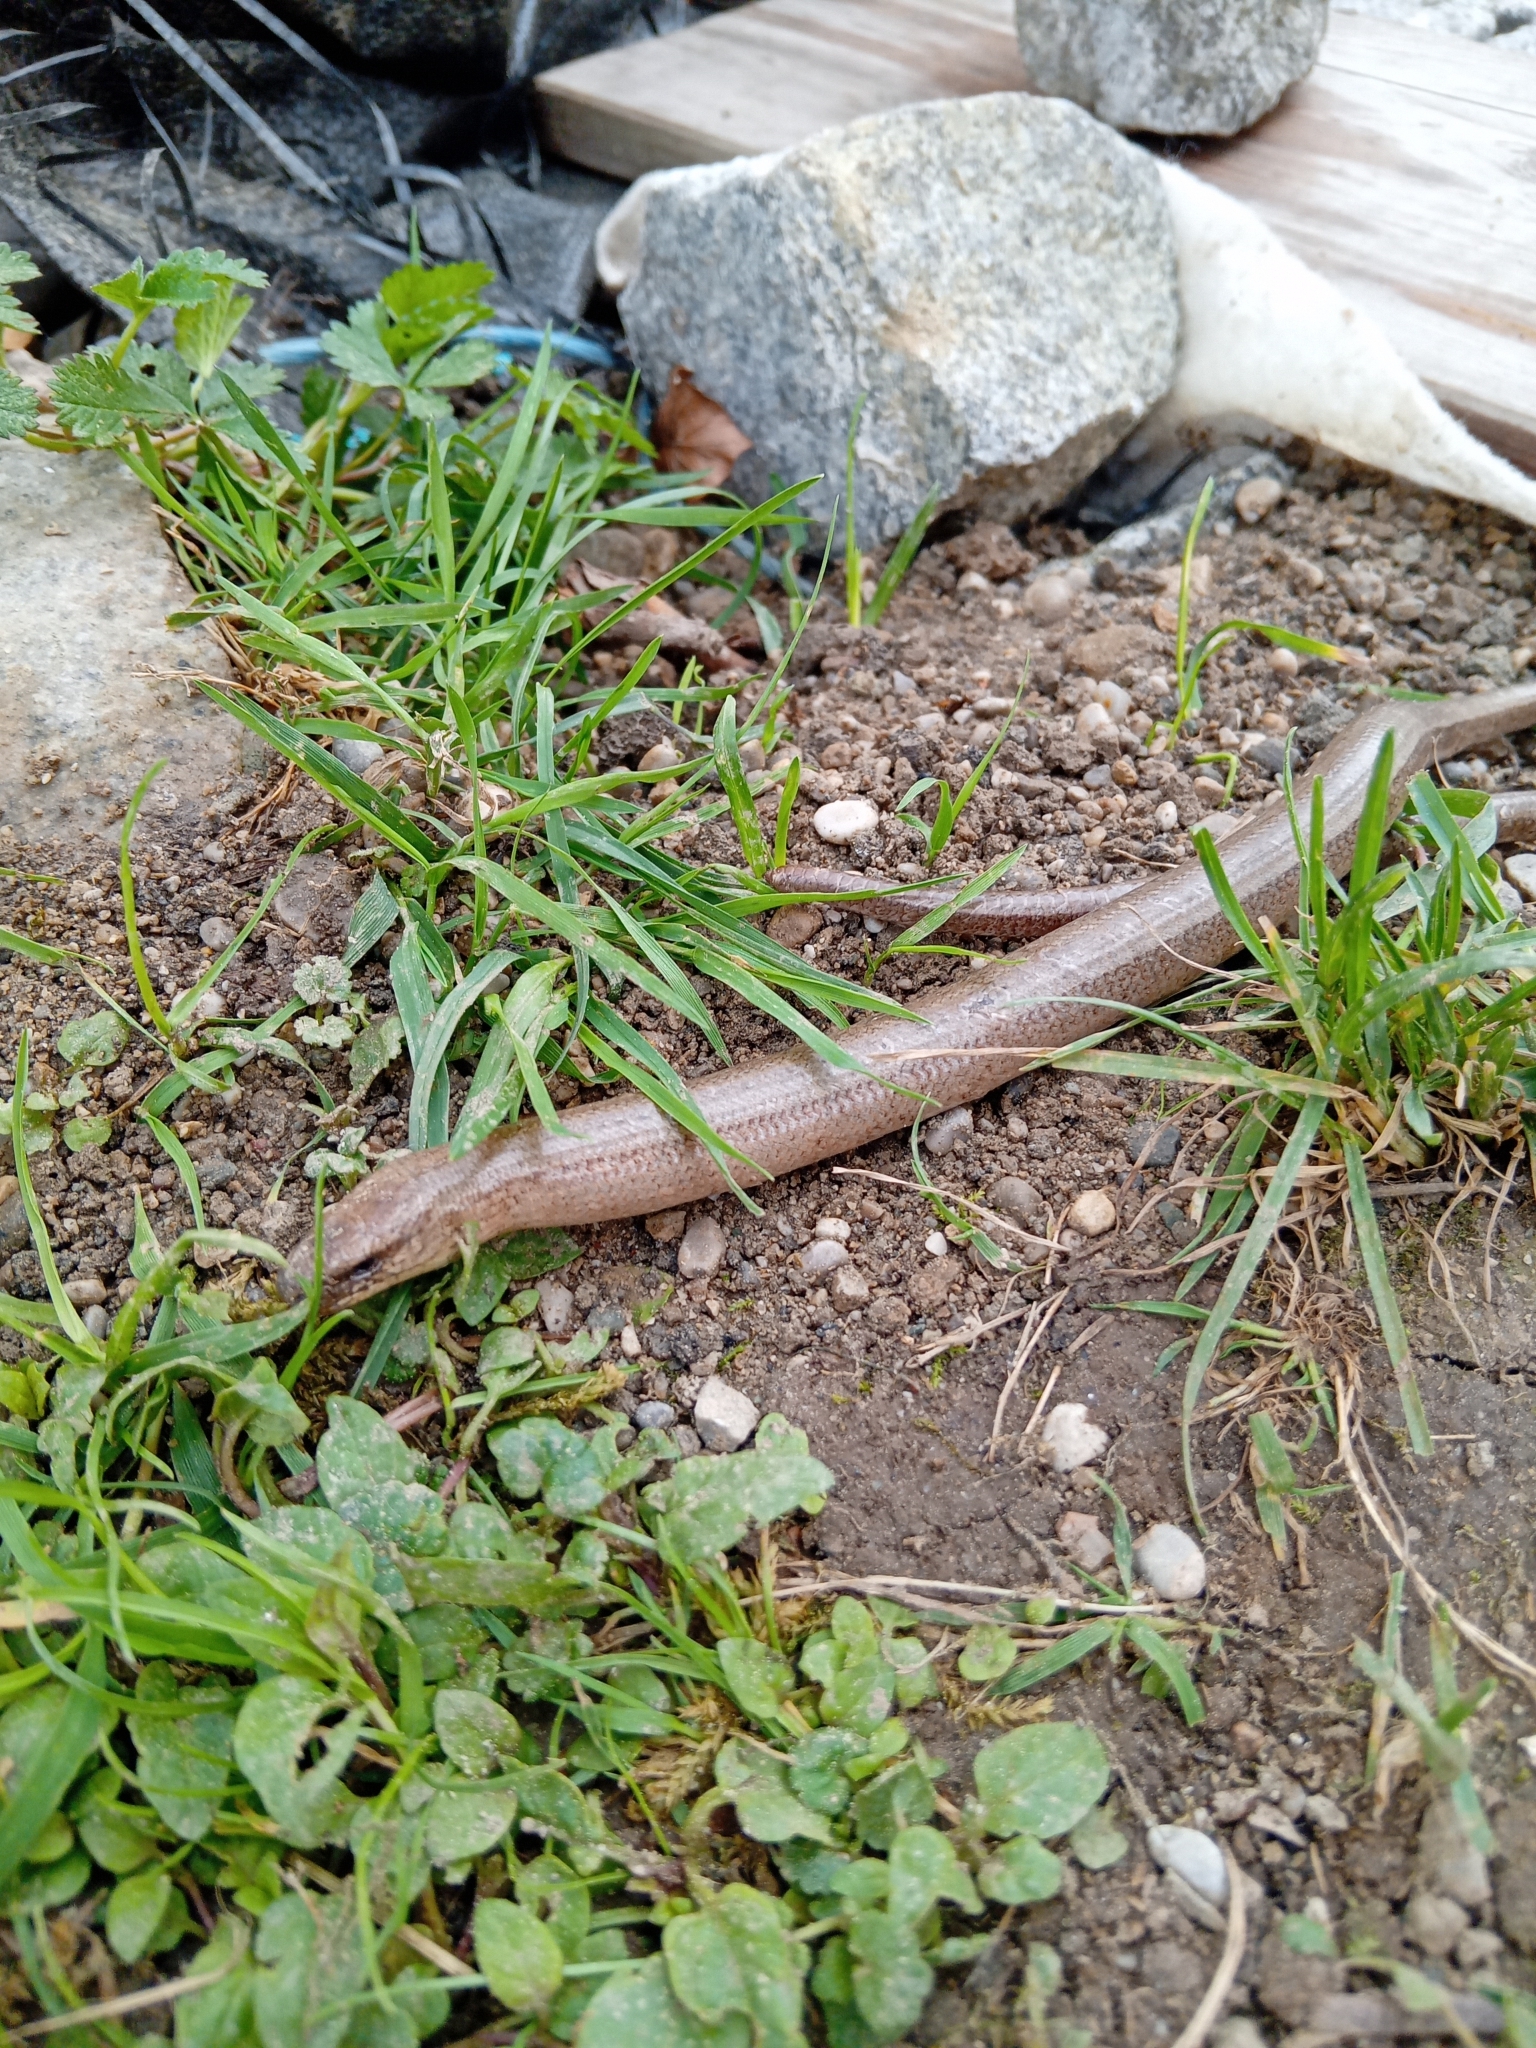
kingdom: Animalia
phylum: Chordata
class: Squamata
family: Anguidae
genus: Anguis
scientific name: Anguis fragilis
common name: Slow worm
